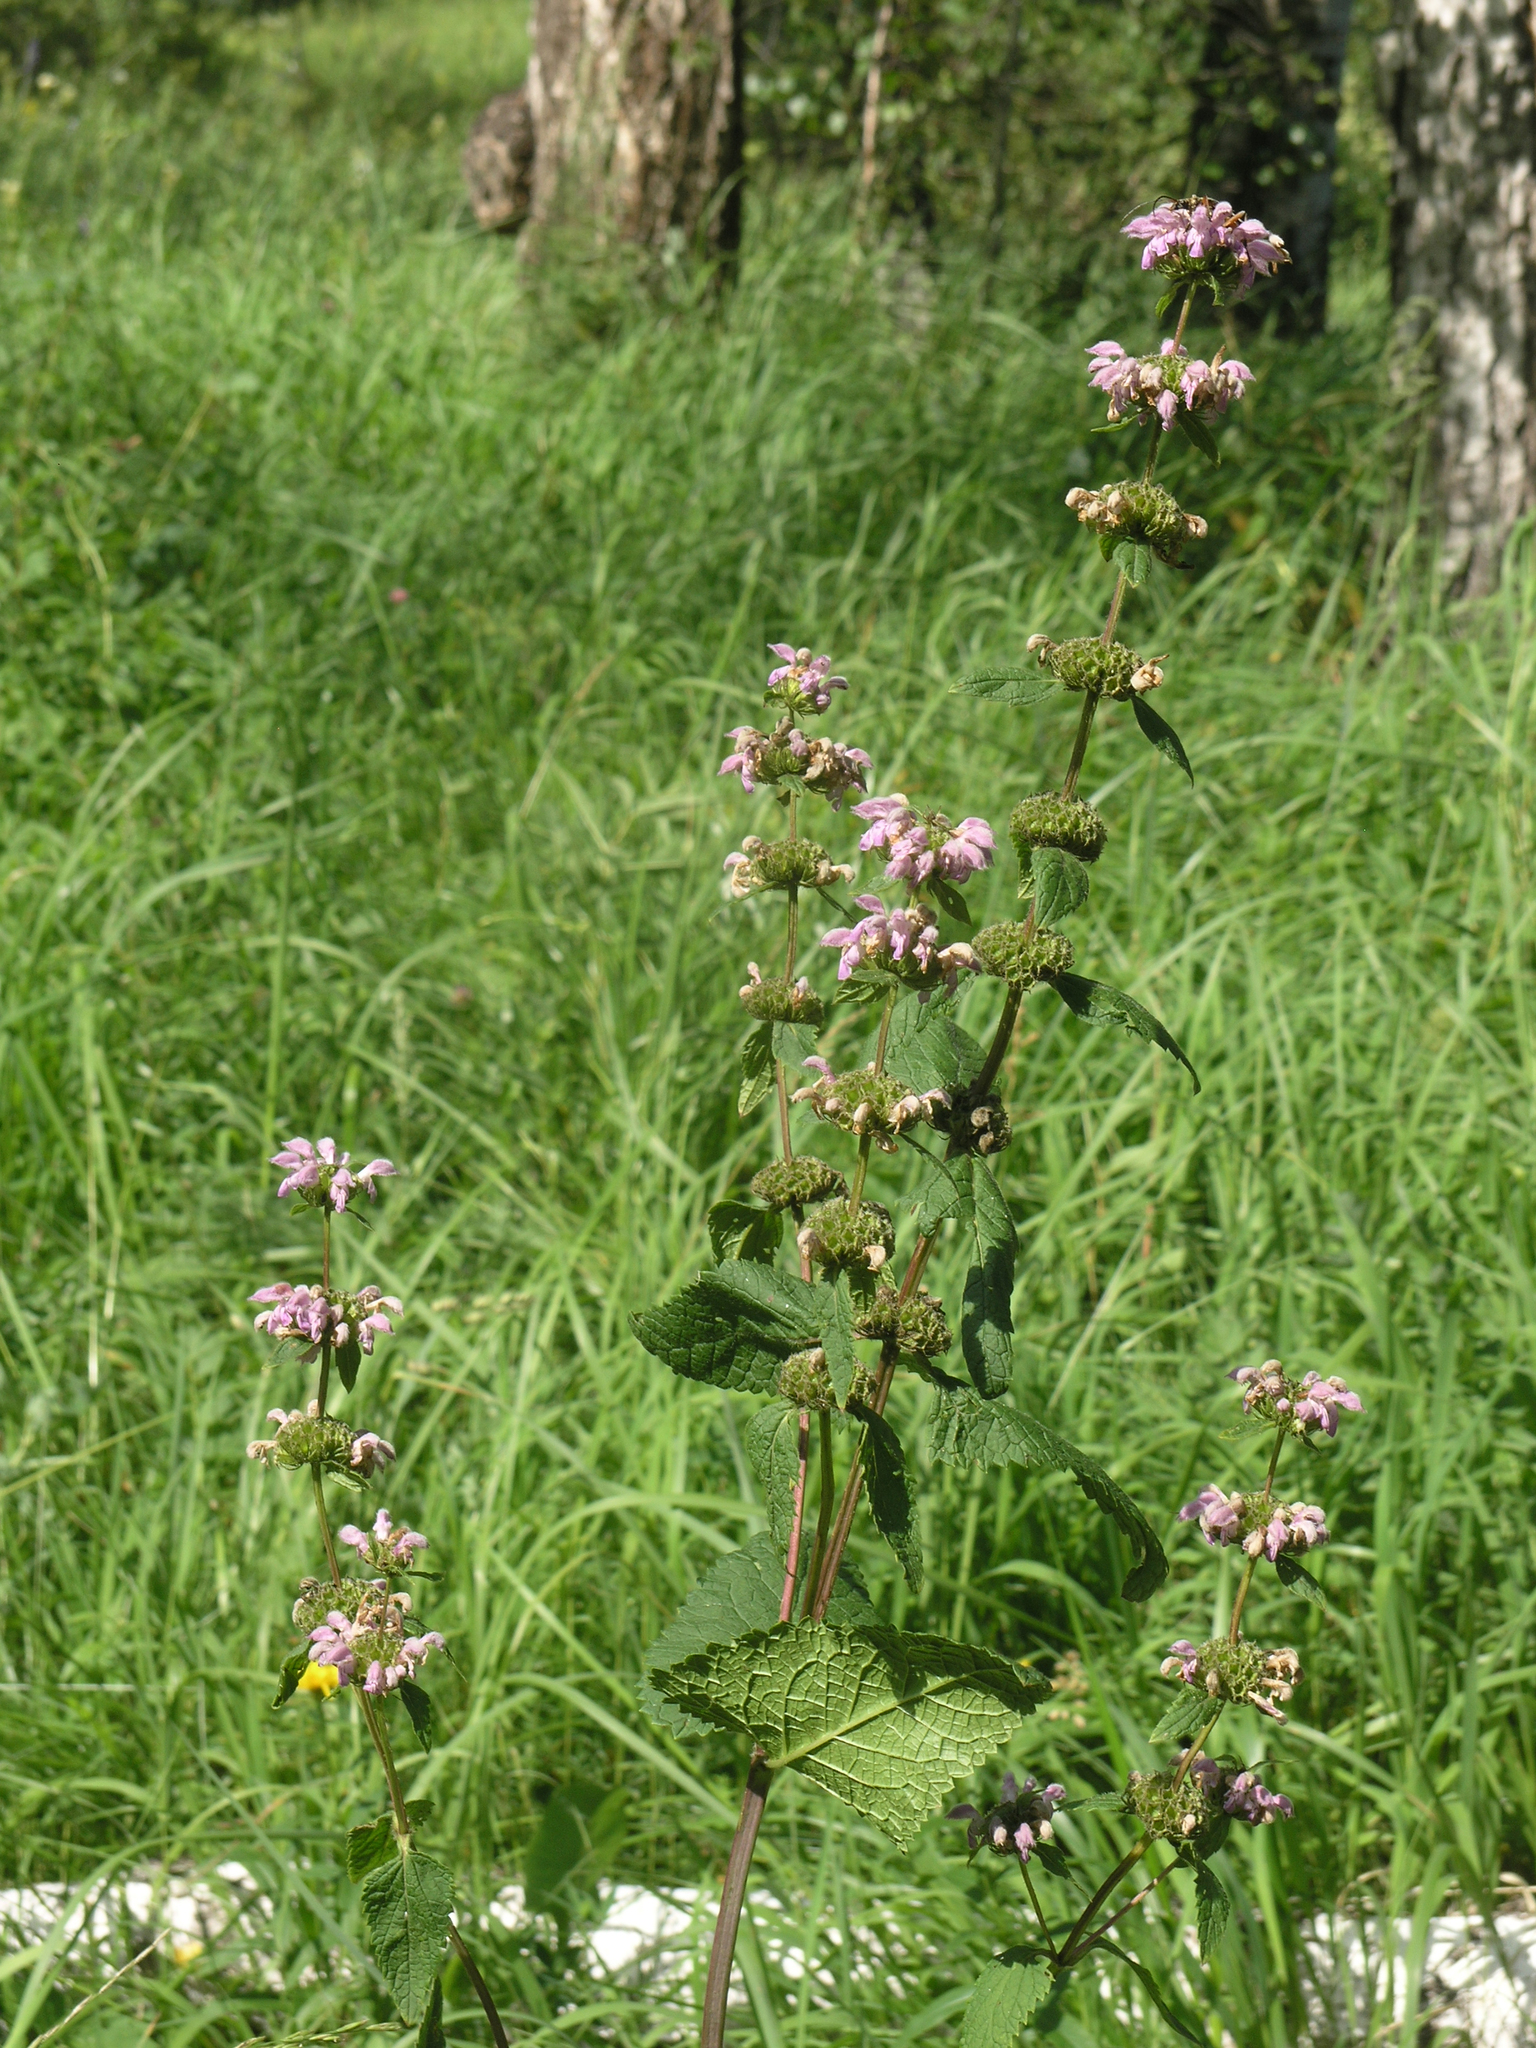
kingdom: Plantae
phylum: Tracheophyta
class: Magnoliopsida
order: Lamiales
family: Lamiaceae
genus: Phlomoides
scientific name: Phlomoides tuberosa
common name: Tuberous jerusalem sage
